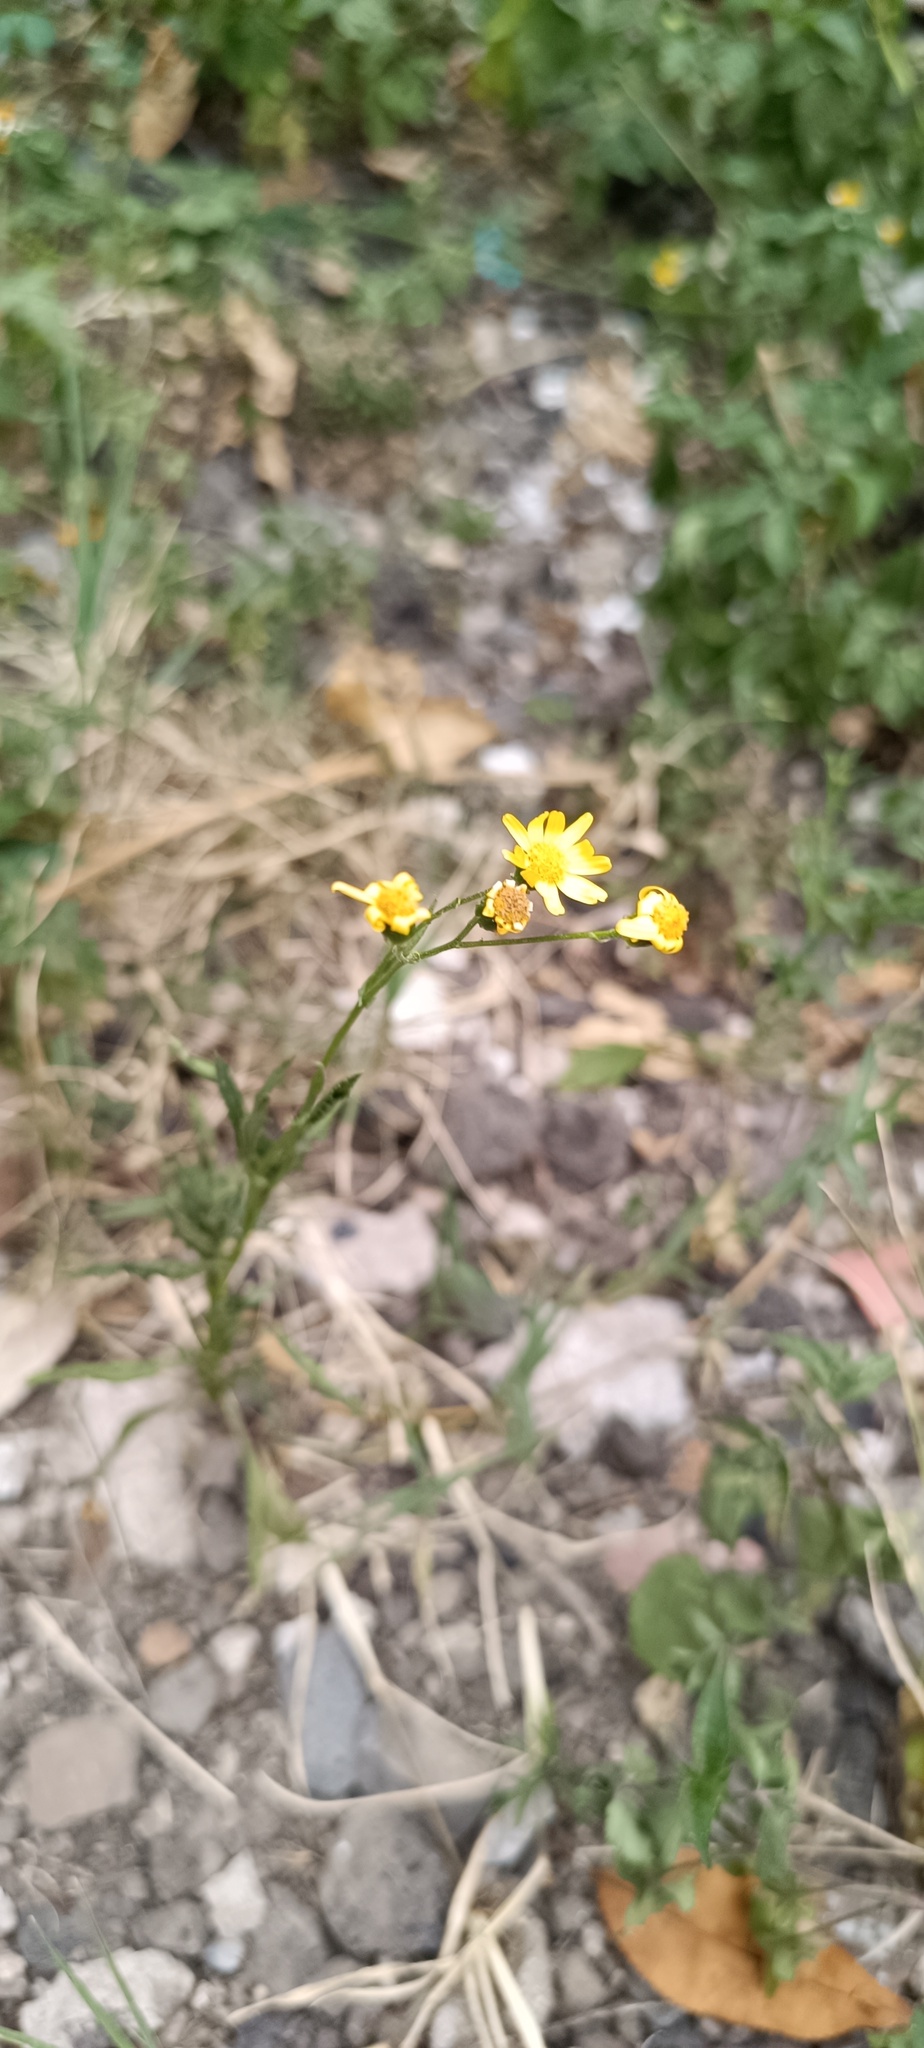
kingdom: Plantae
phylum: Tracheophyta
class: Magnoliopsida
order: Asterales
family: Asteraceae
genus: Senecio
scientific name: Senecio inaequidens
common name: Narrow-leaved ragwort
